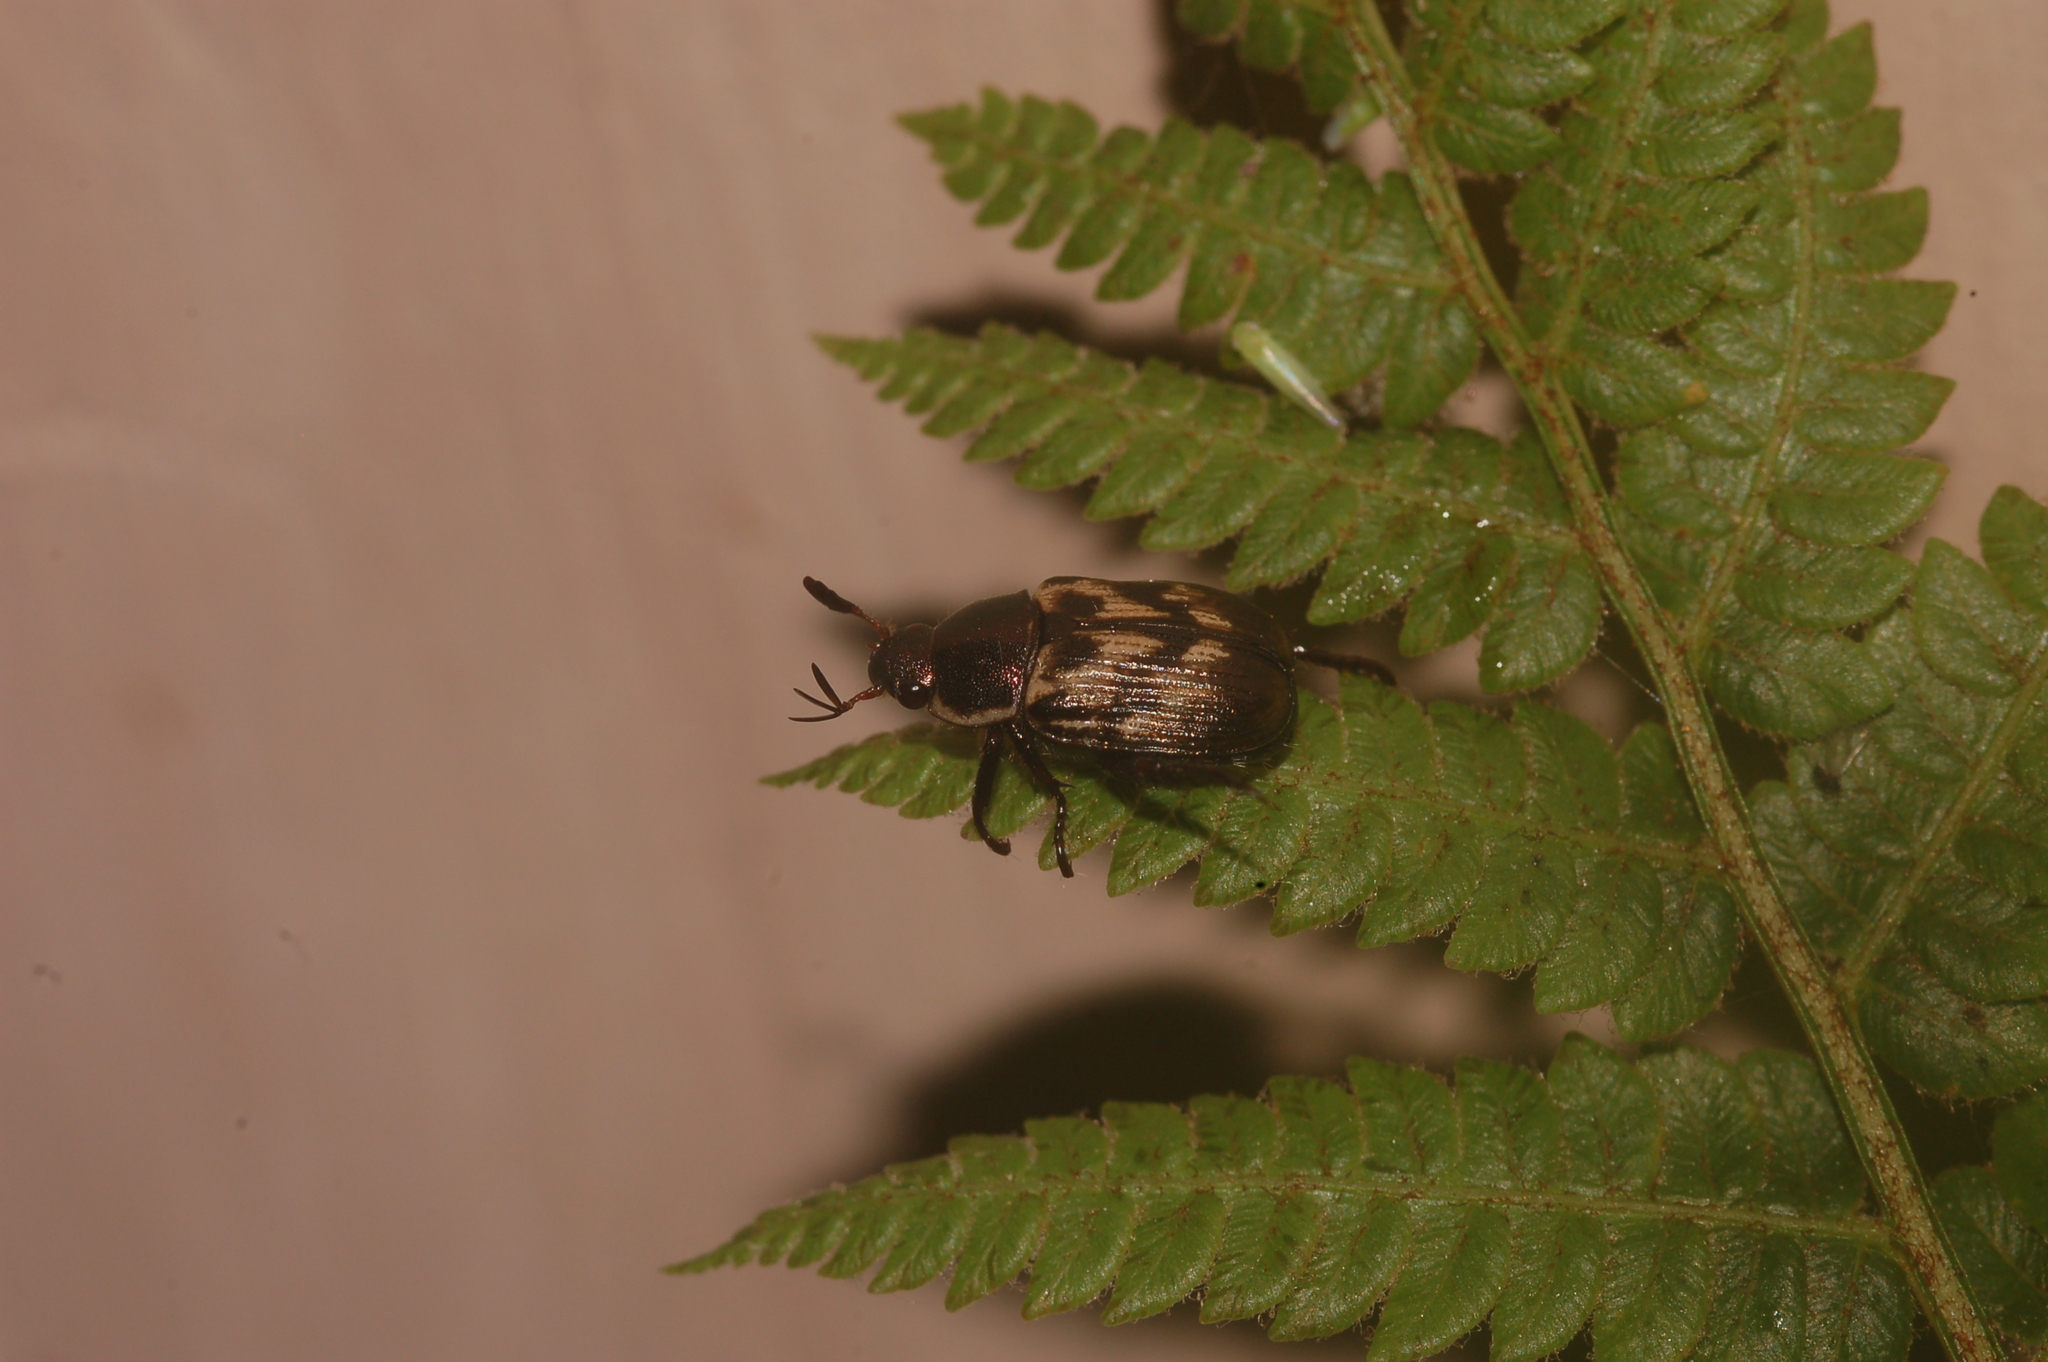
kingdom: Animalia
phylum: Arthropoda
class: Insecta
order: Coleoptera
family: Scarabaeidae
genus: Exomala
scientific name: Exomala orientalis
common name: Oriental beetle
